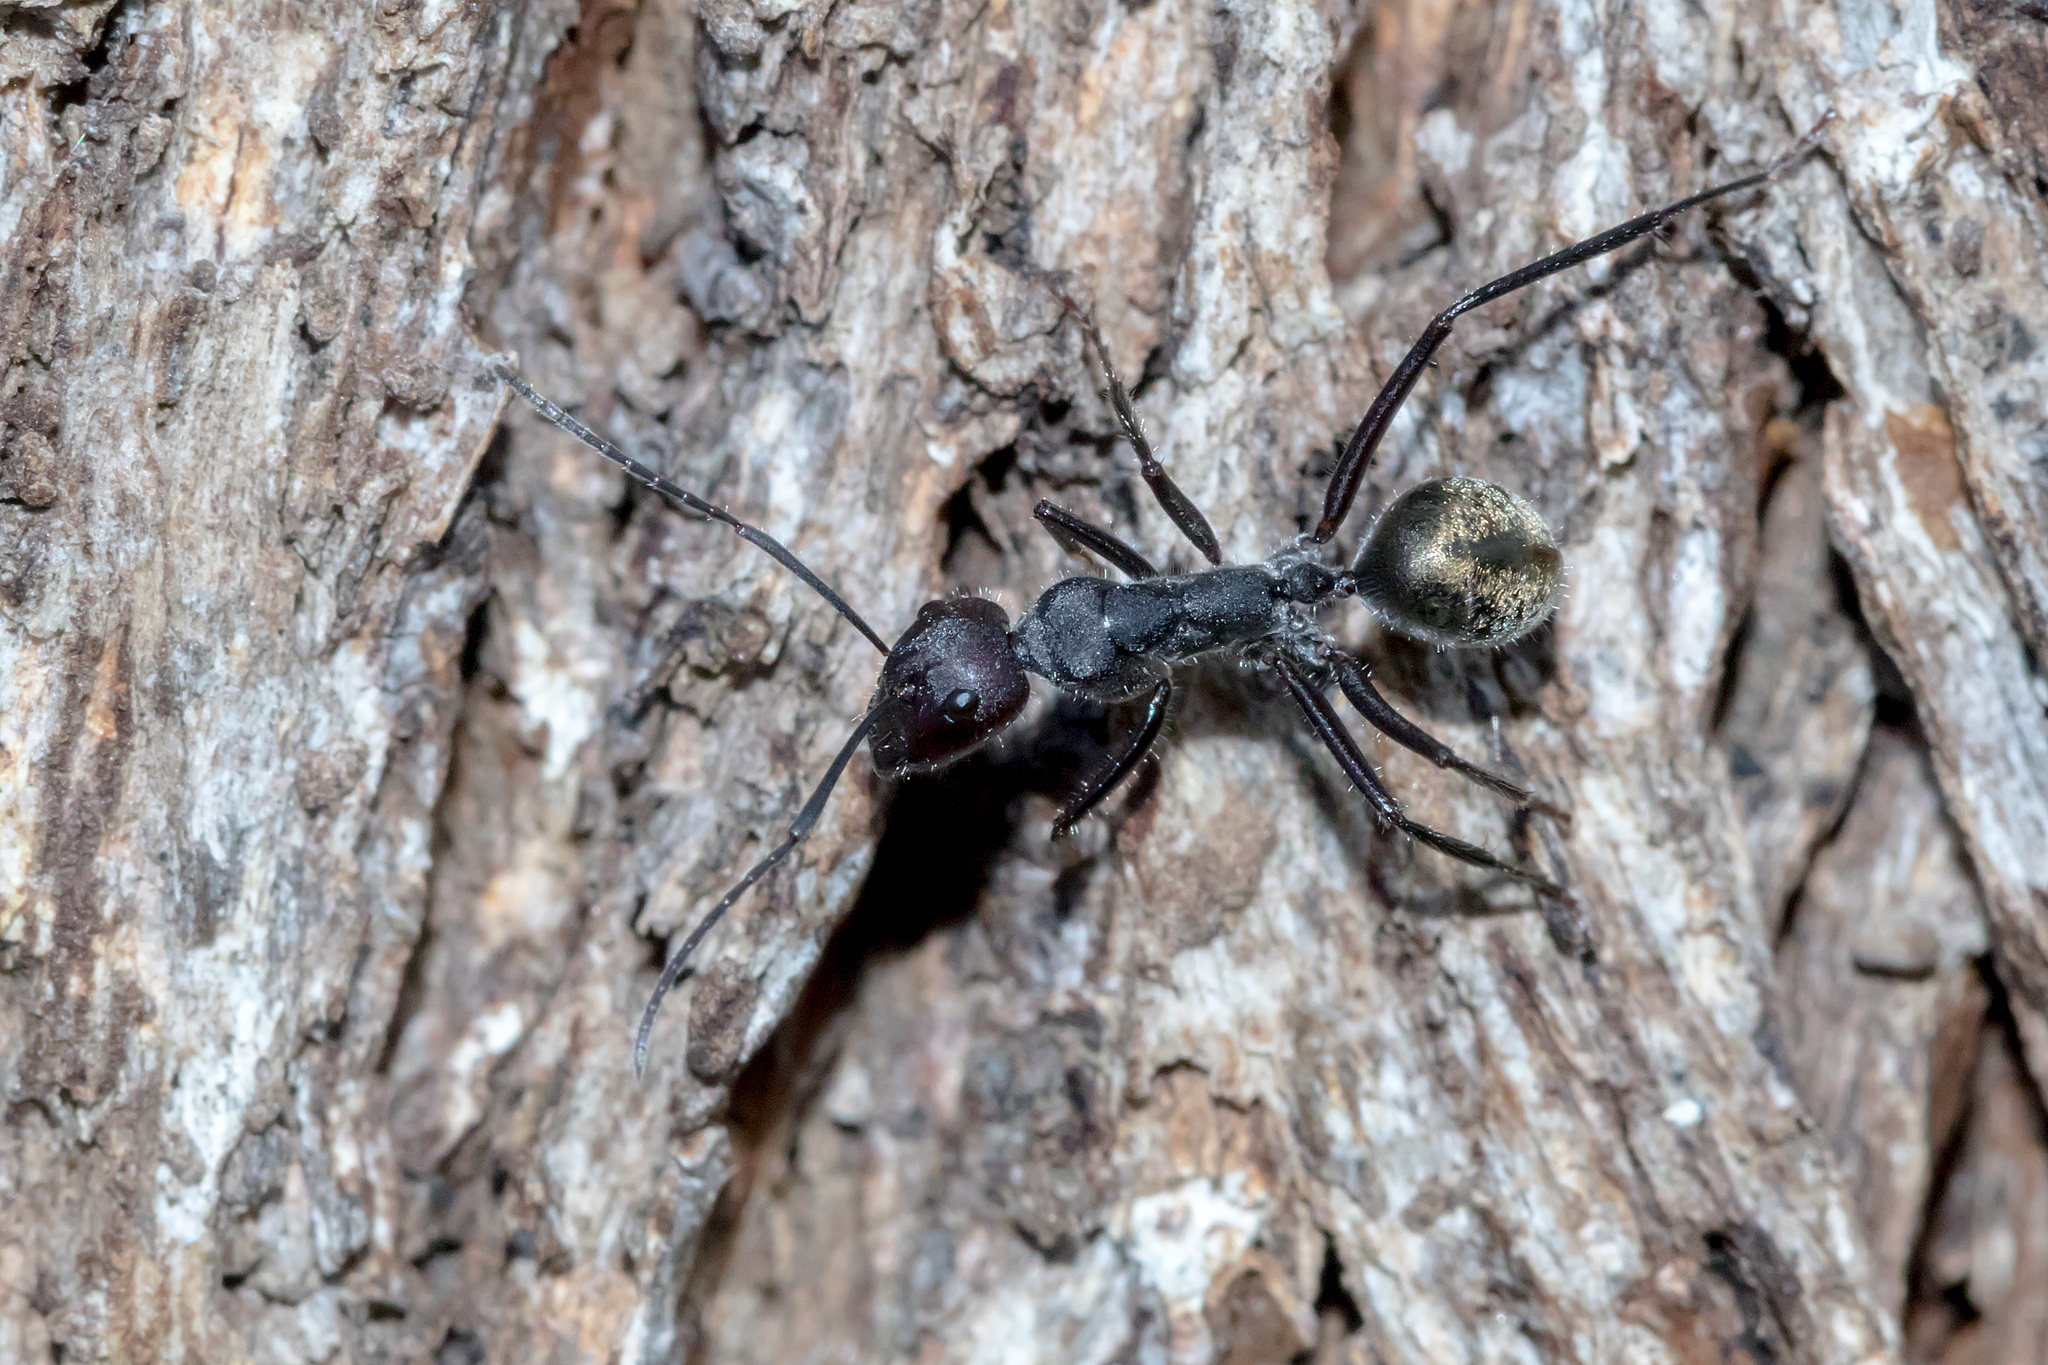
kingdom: Animalia
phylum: Arthropoda
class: Insecta
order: Hymenoptera
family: Formicidae
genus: Camponotus
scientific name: Camponotus suffusus
